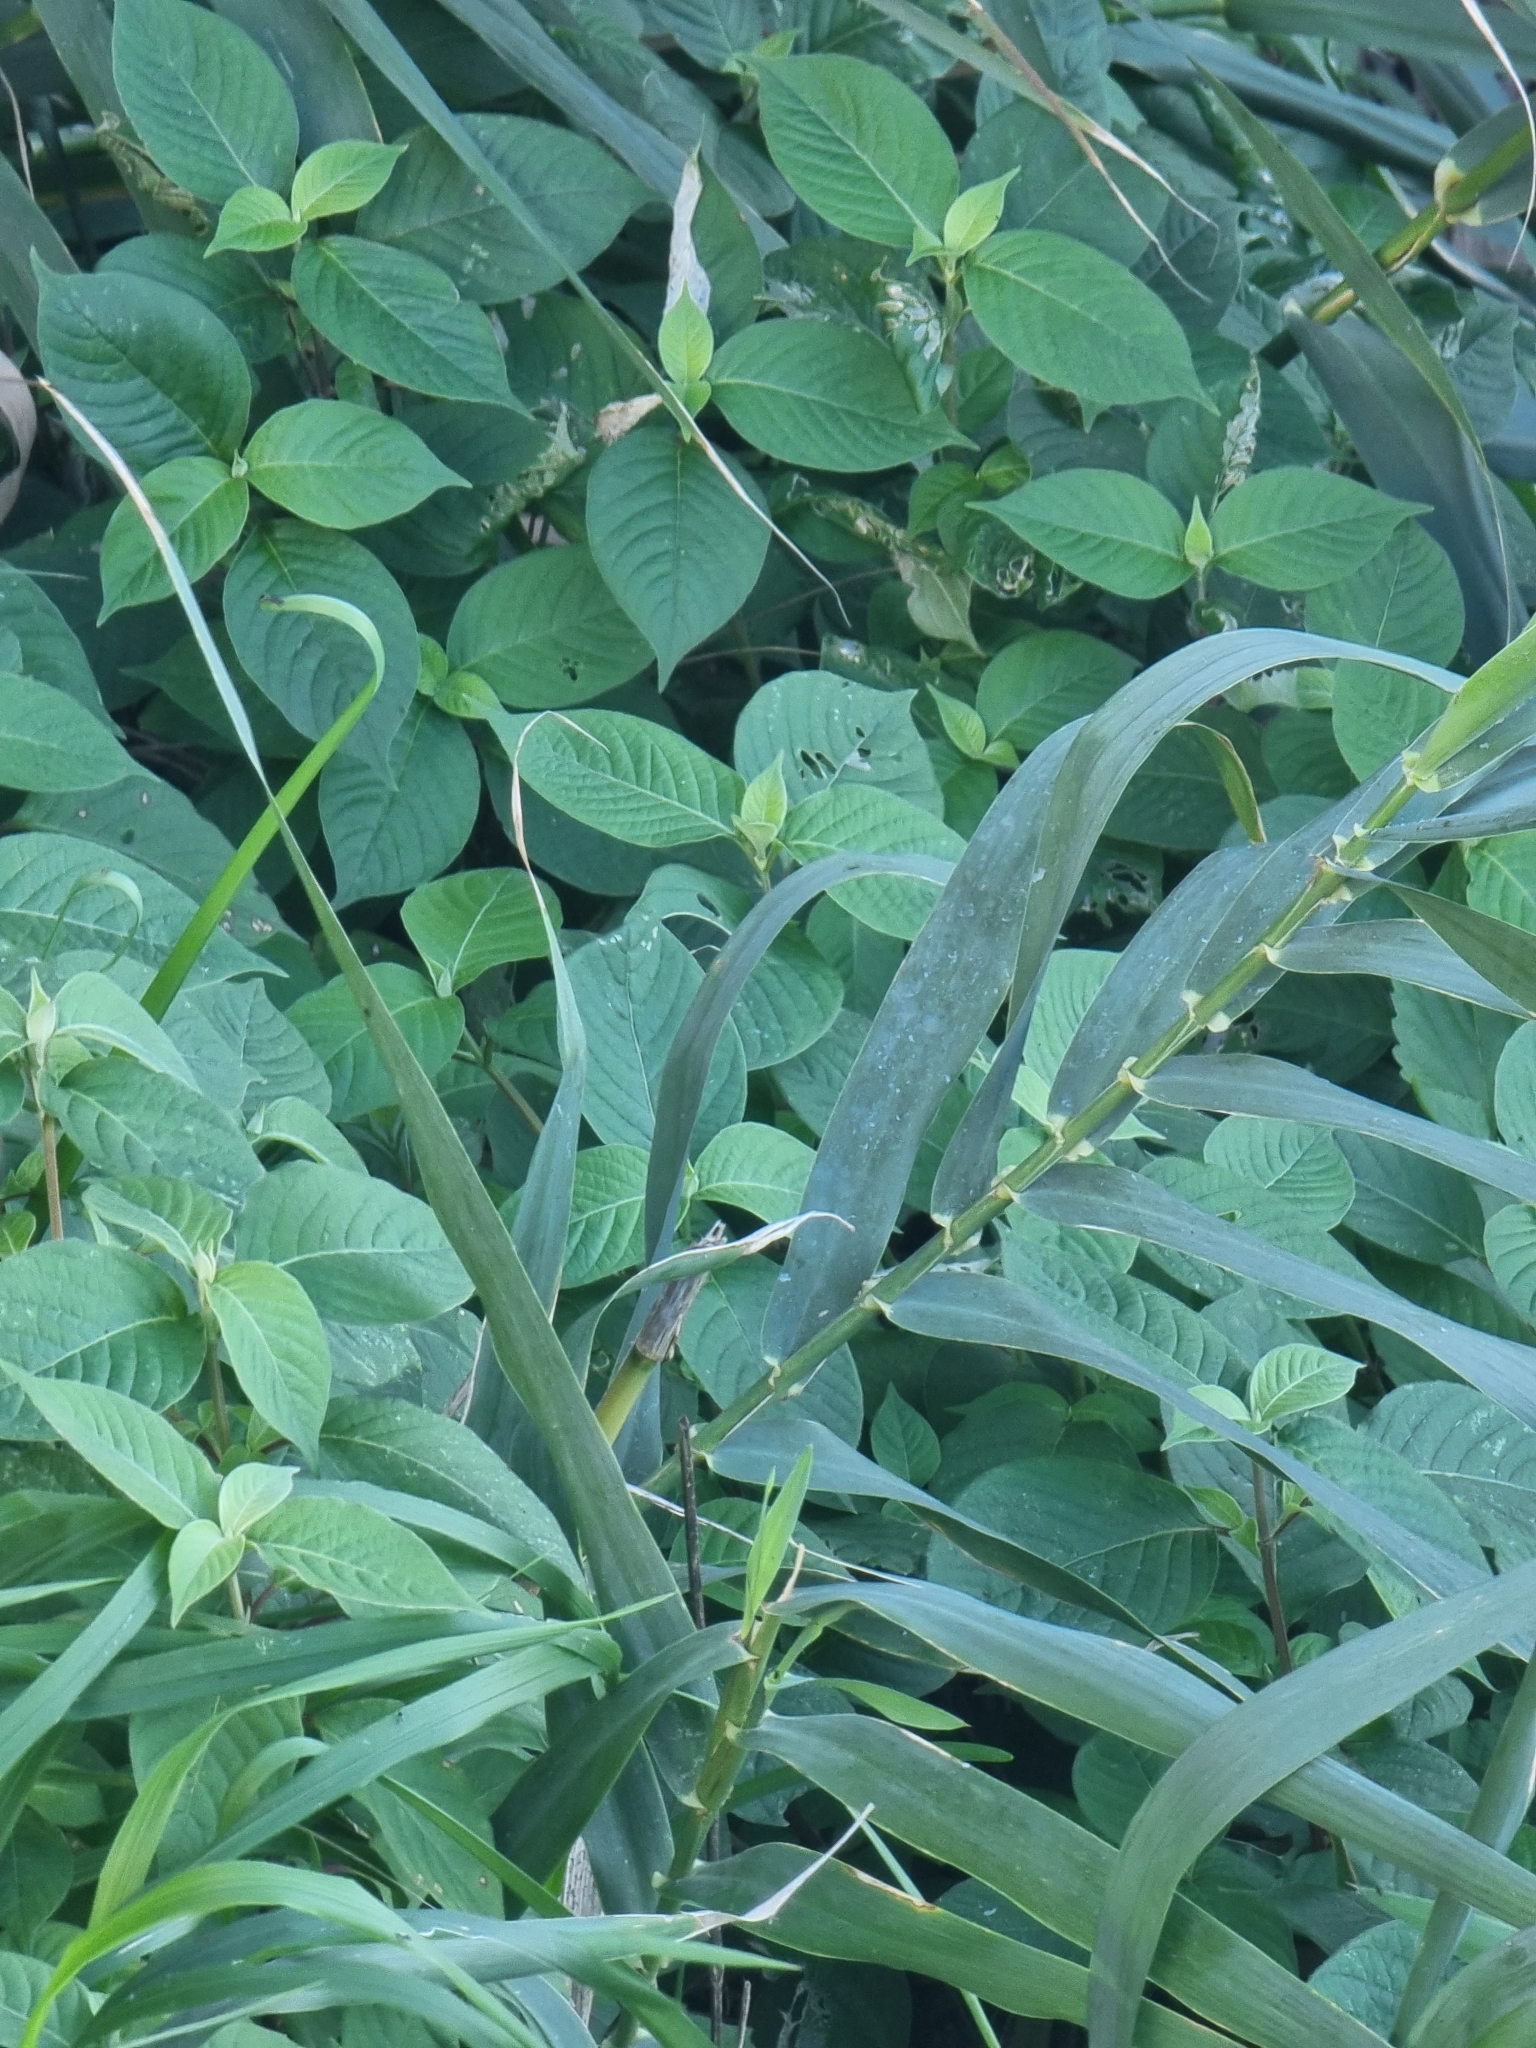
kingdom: Plantae
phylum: Tracheophyta
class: Magnoliopsida
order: Caryophyllales
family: Amaranthaceae
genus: Achyranthes
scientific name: Achyranthes aspera
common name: Devil's horsewhip
